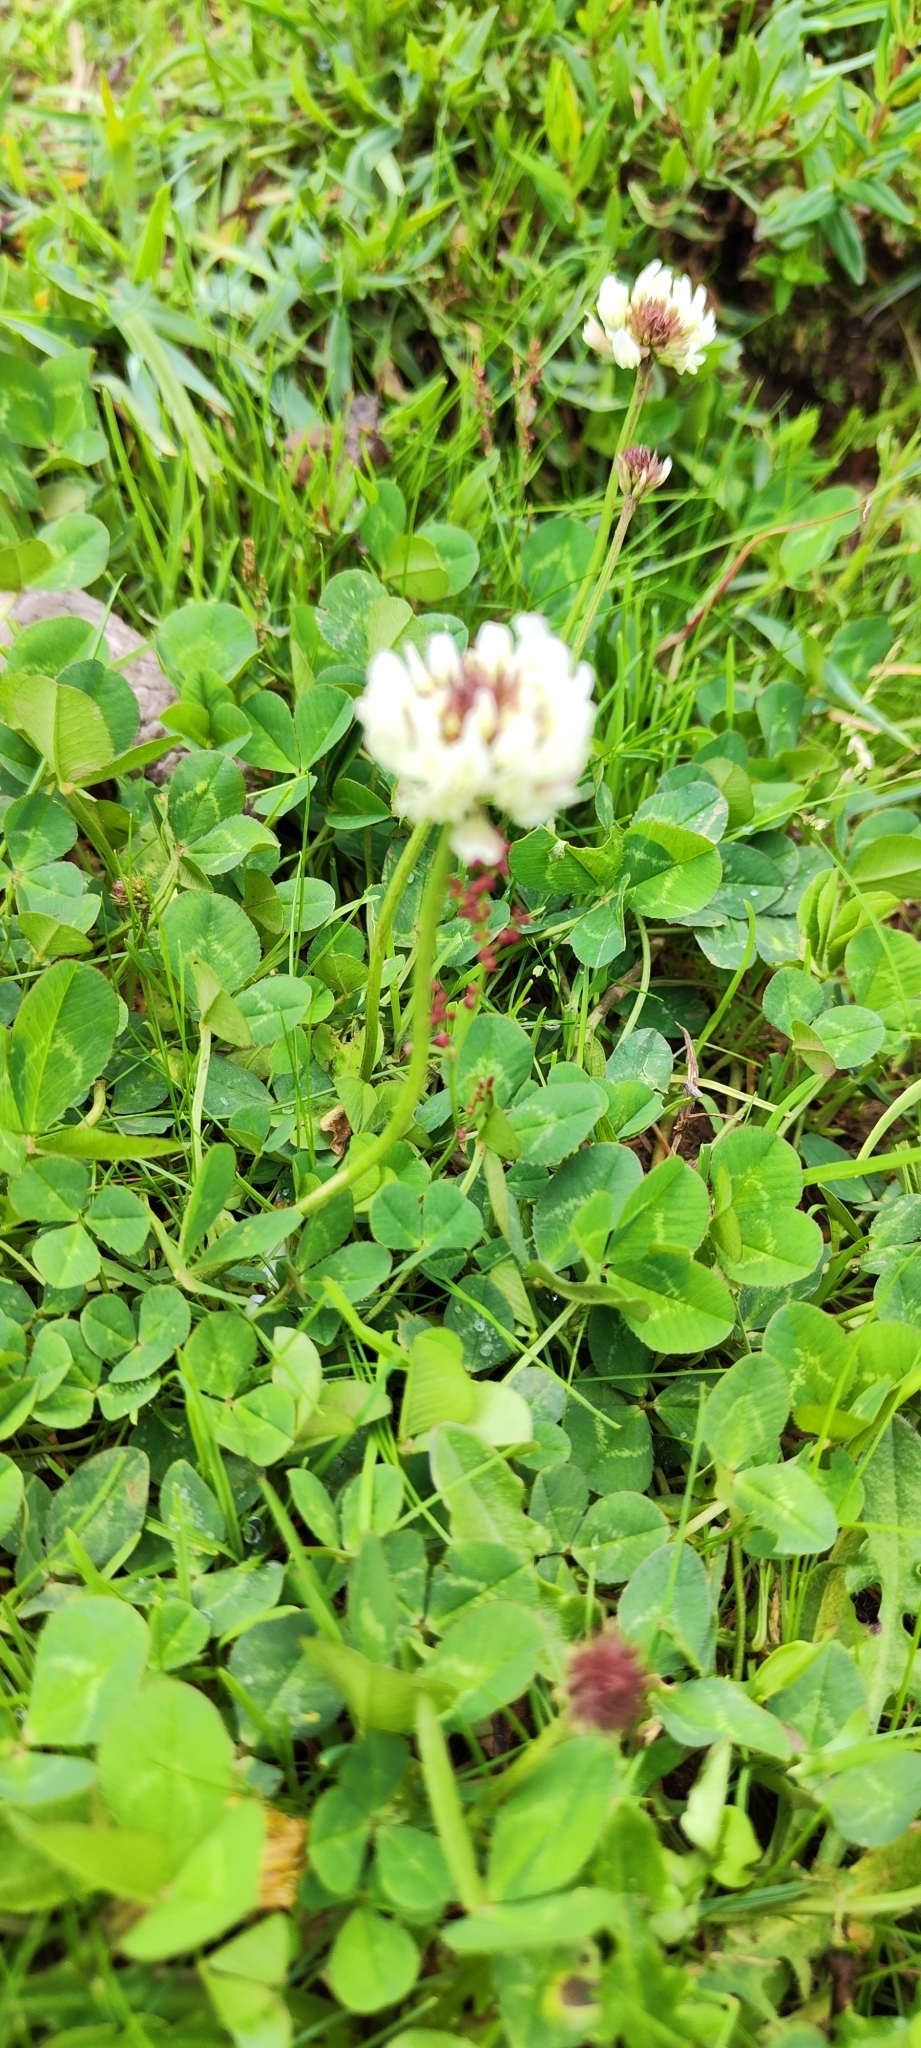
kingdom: Plantae
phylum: Tracheophyta
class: Magnoliopsida
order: Fabales
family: Fabaceae
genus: Trifolium
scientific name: Trifolium repens
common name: White clover
